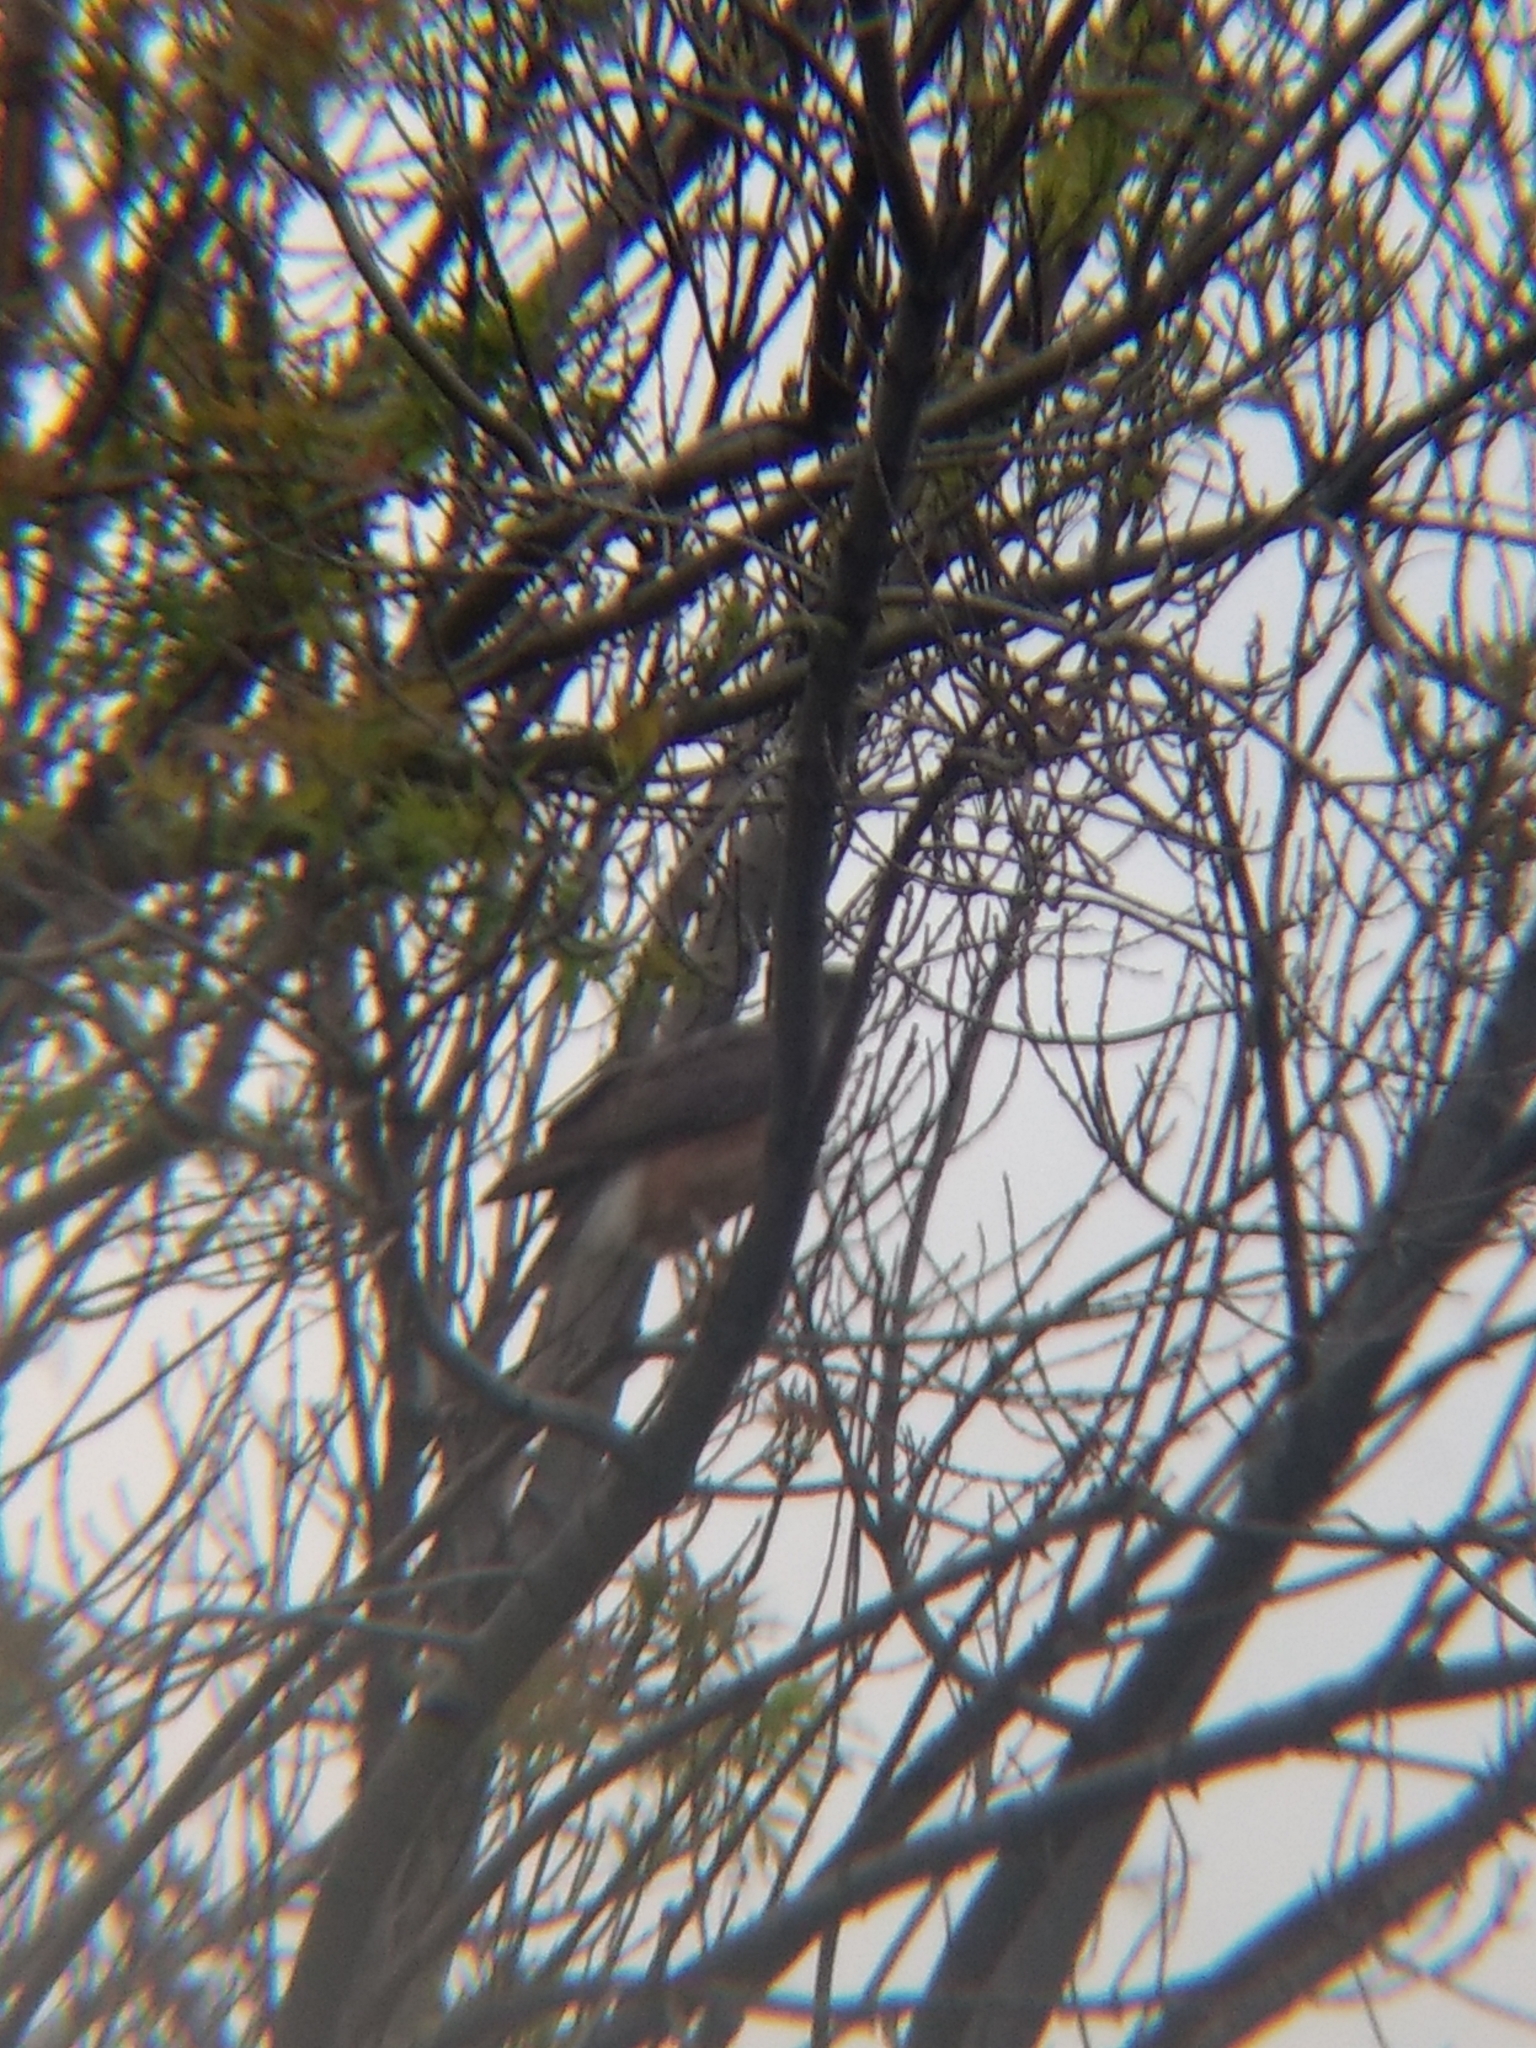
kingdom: Animalia
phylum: Chordata
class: Aves
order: Accipitriformes
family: Accipitridae
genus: Accipiter
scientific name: Accipiter cooperii
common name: Cooper's hawk
